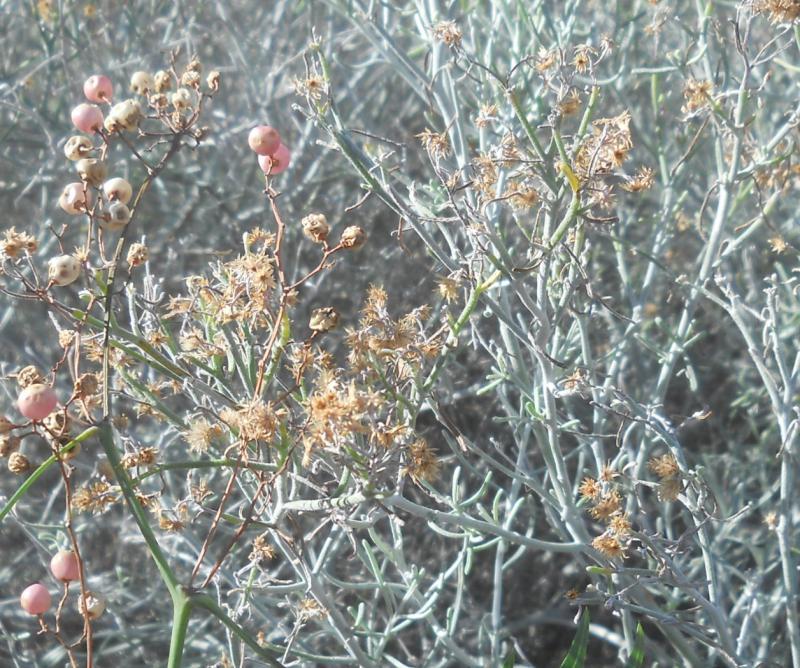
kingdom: Plantae
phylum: Tracheophyta
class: Magnoliopsida
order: Asterales
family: Asteraceae
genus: Schizogyne
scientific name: Schizogyne sericea
